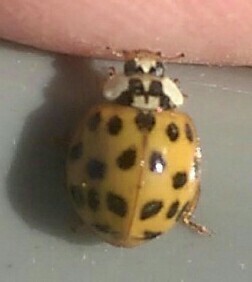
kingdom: Animalia
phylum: Arthropoda
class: Insecta
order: Coleoptera
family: Coccinellidae
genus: Harmonia
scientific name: Harmonia axyridis
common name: Harlequin ladybird
